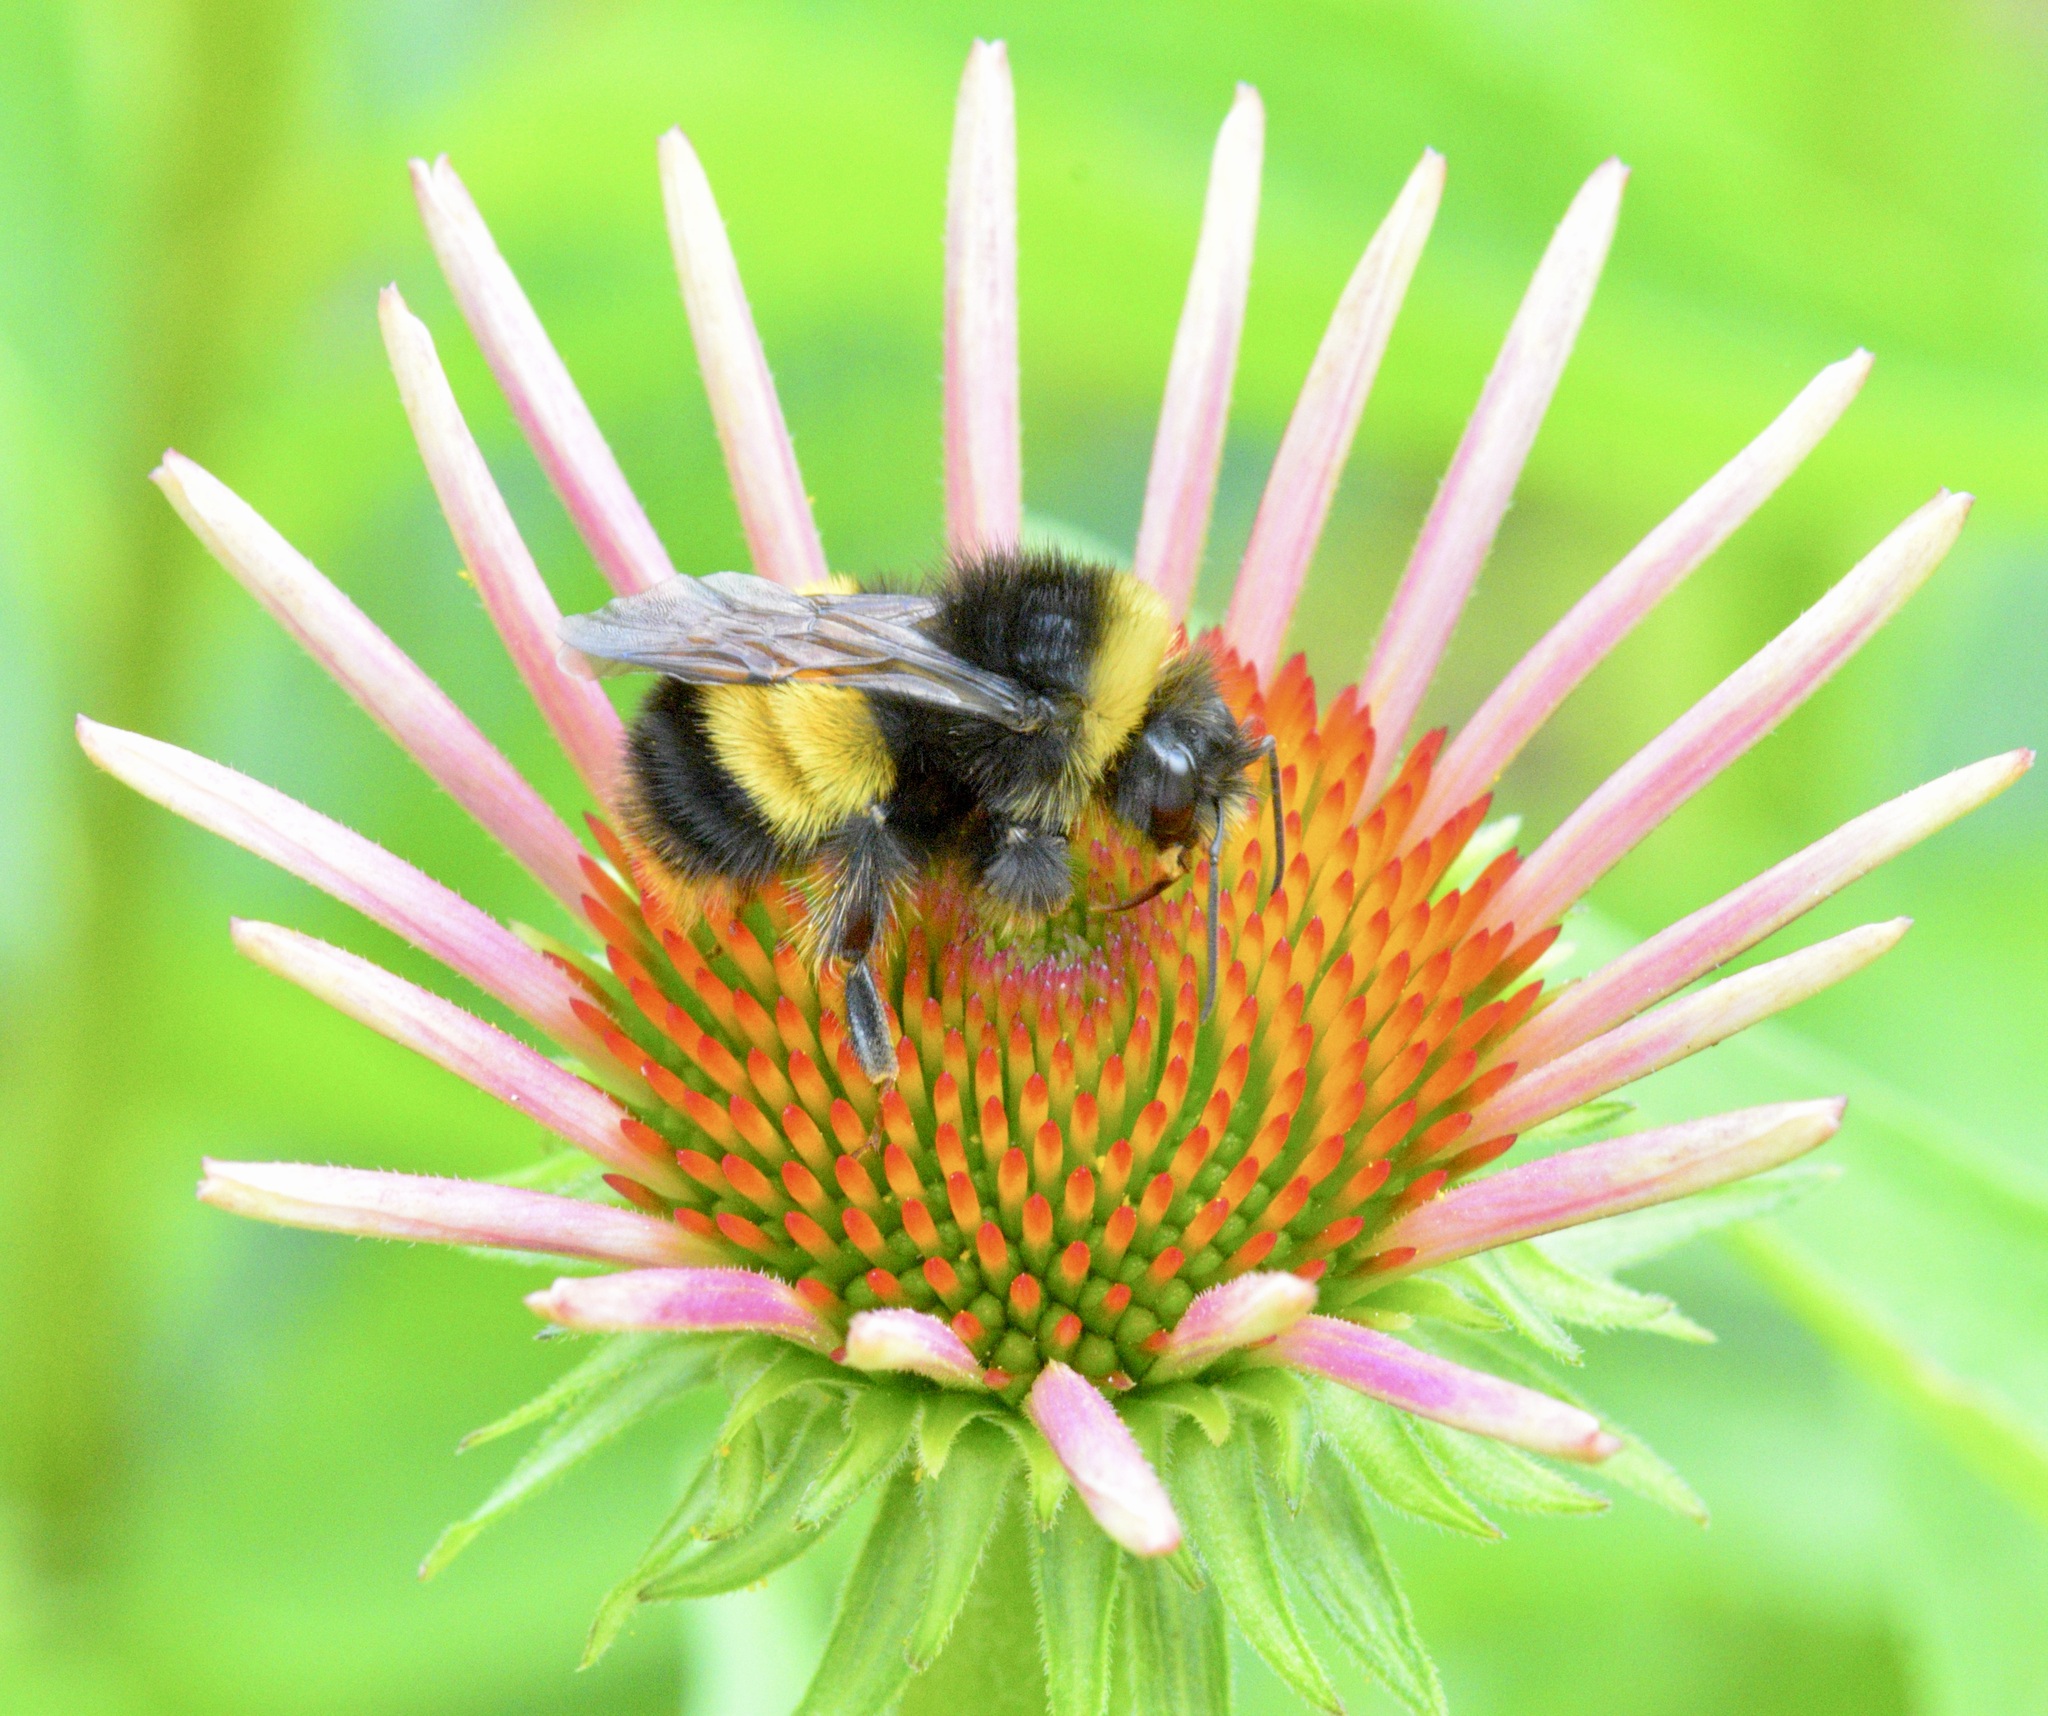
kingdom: Animalia
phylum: Arthropoda
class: Insecta
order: Hymenoptera
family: Apidae
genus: Bombus
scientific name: Bombus terricola
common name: Yellow-banded bumble bee
